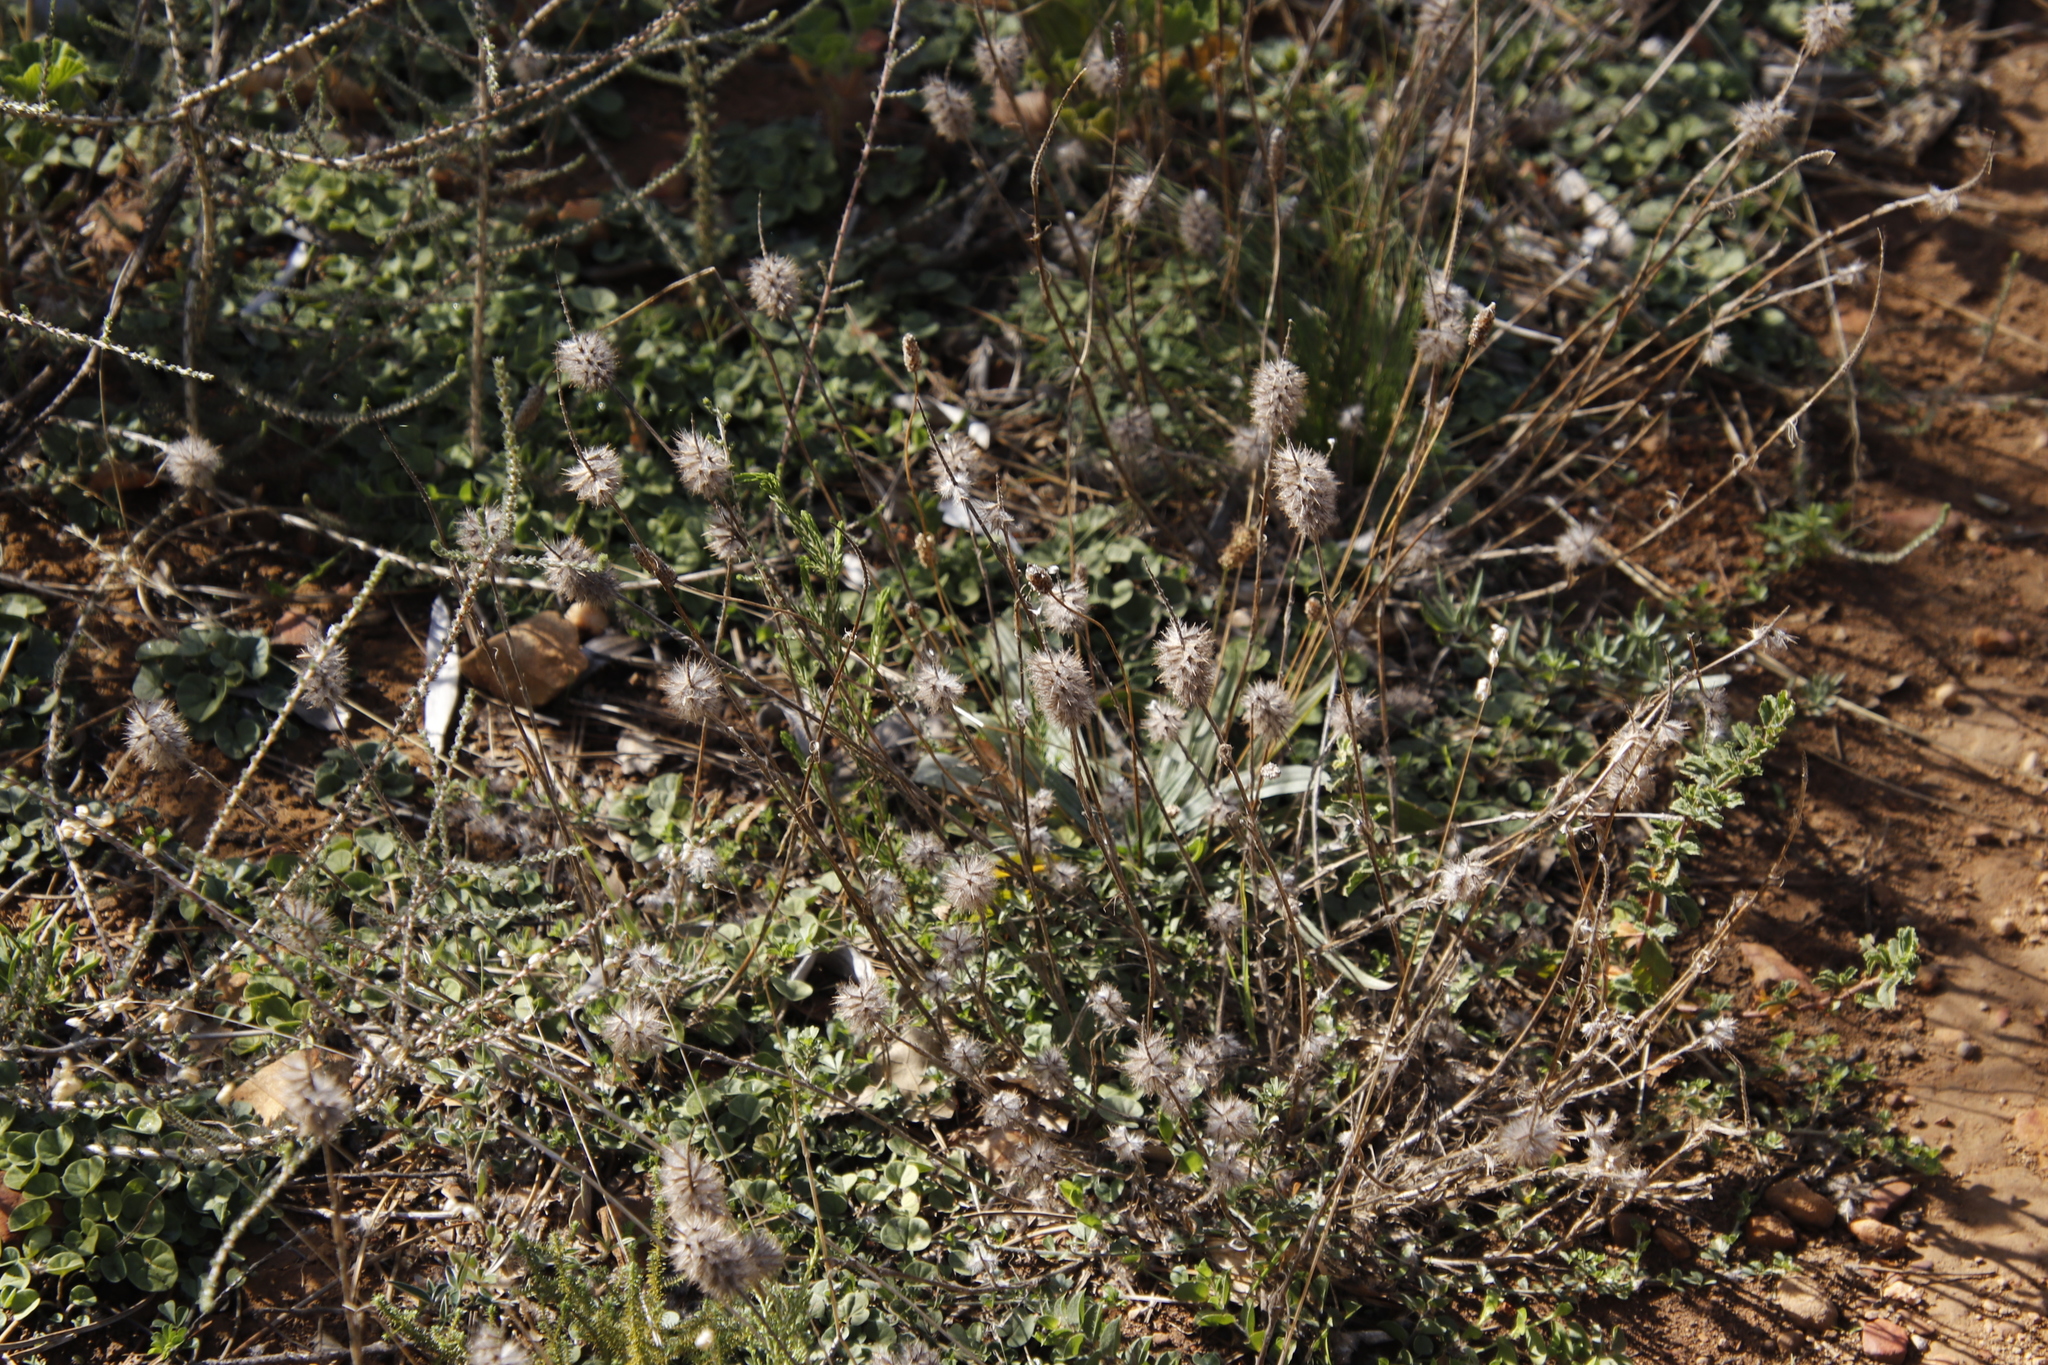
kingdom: Plantae
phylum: Tracheophyta
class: Magnoliopsida
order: Fabales
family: Fabaceae
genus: Trifolium
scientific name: Trifolium angustifolium
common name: Narrow clover
